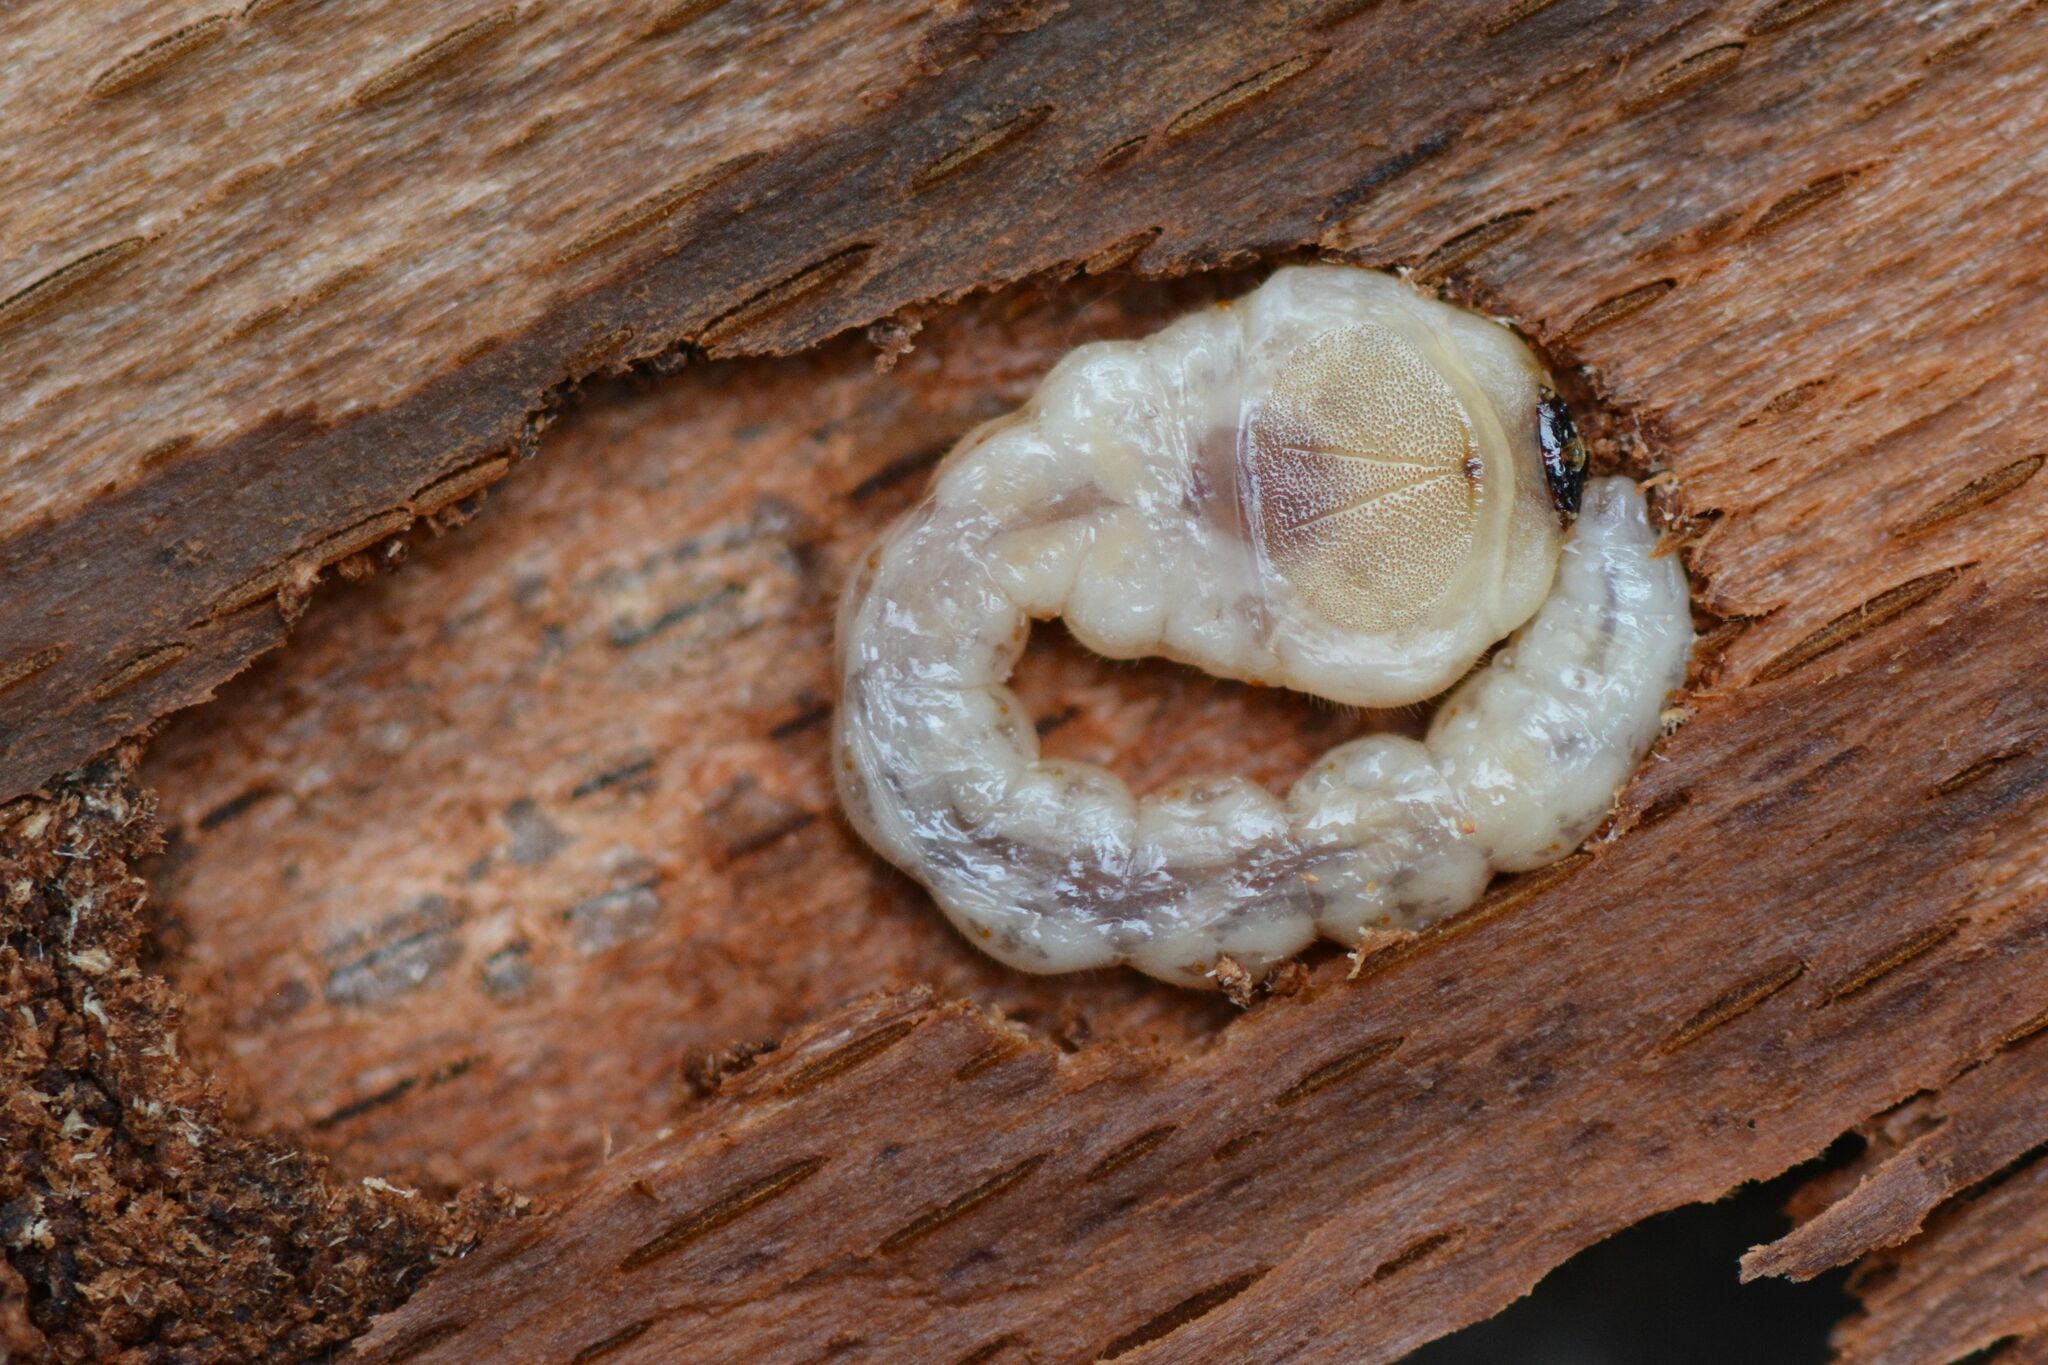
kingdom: Animalia
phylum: Arthropoda
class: Insecta
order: Coleoptera
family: Buprestidae
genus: Chrysobothris
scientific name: Chrysobothris affinis
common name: Beetle
